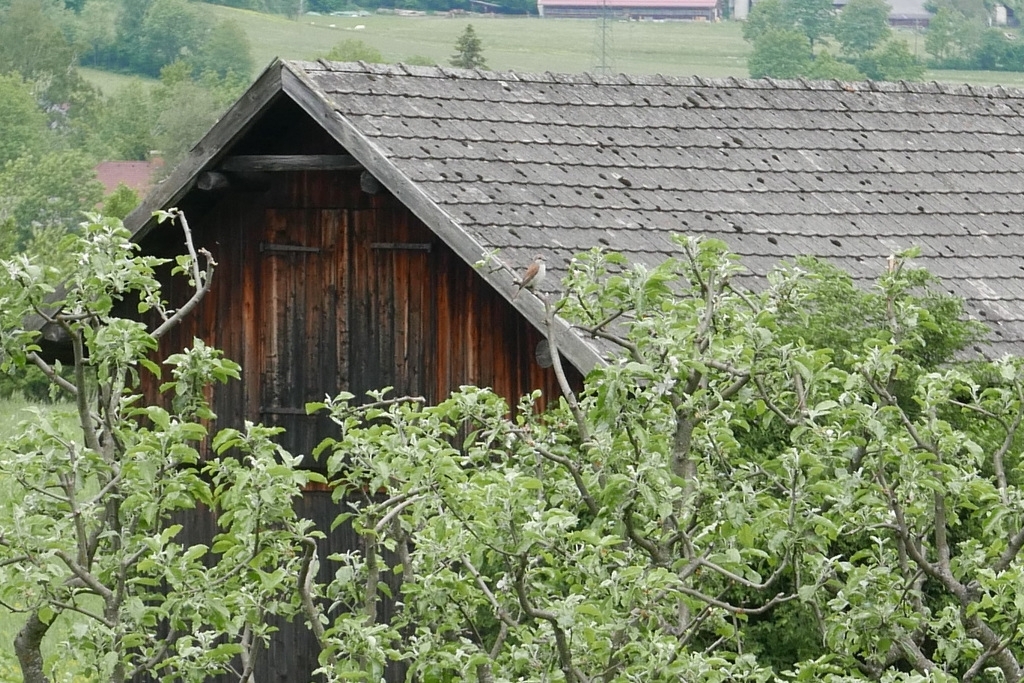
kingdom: Animalia
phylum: Chordata
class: Aves
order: Passeriformes
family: Laniidae
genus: Lanius
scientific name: Lanius collurio
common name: Red-backed shrike
